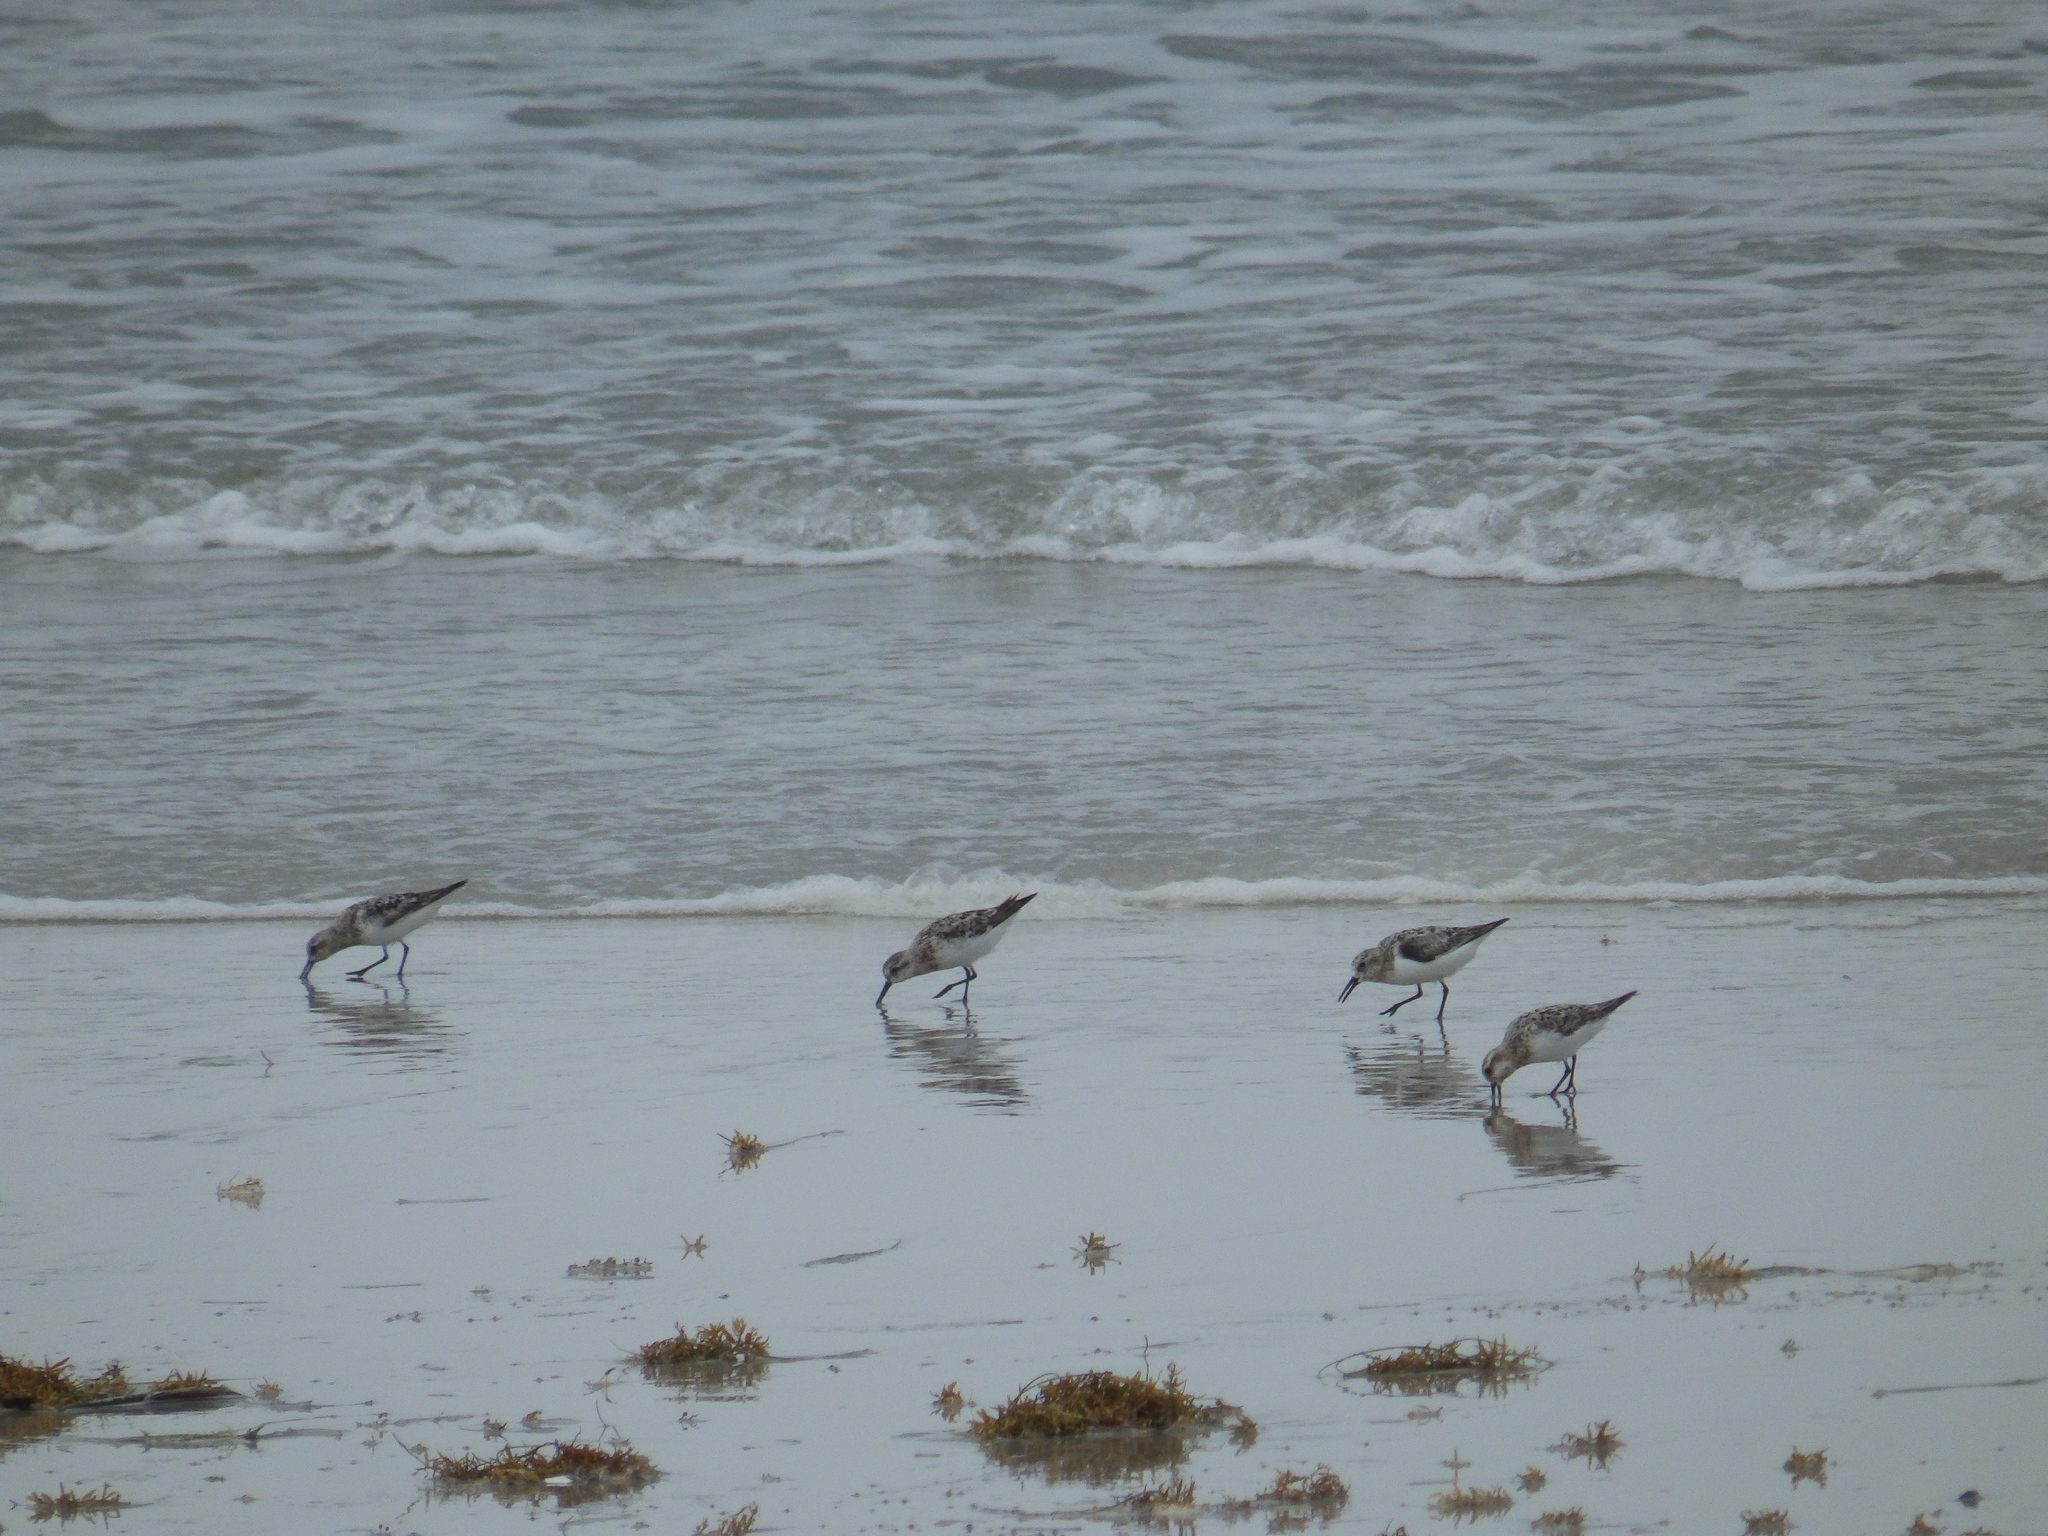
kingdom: Animalia
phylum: Chordata
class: Aves
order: Charadriiformes
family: Scolopacidae
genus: Calidris
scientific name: Calidris alba
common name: Sanderling
